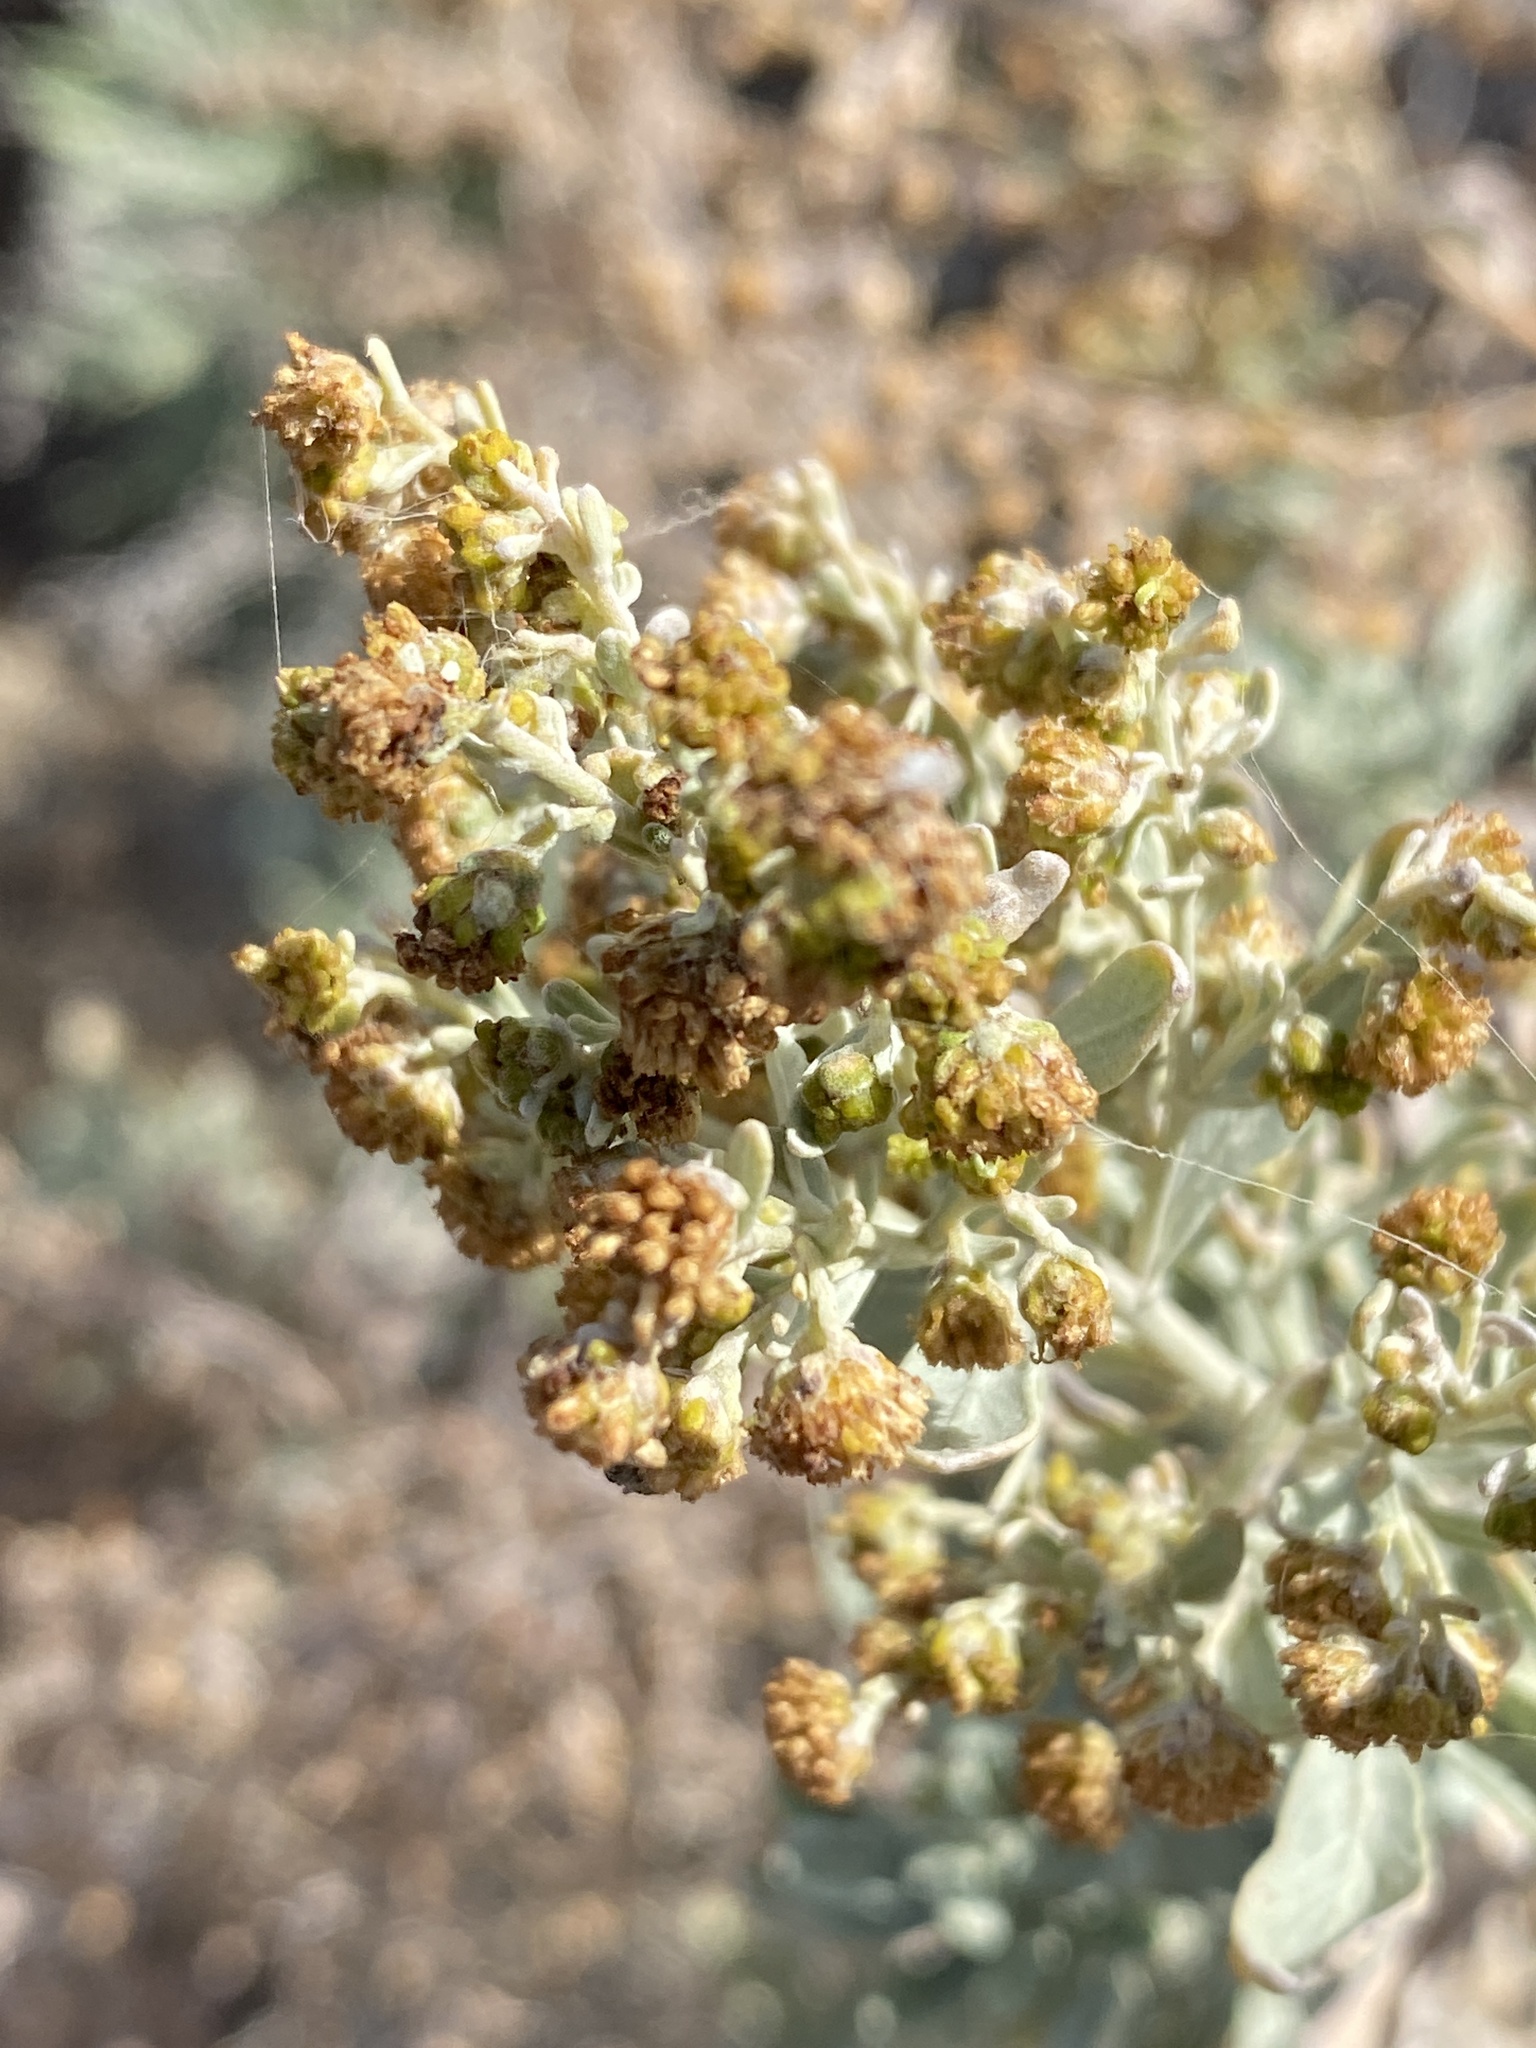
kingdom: Plantae
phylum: Tracheophyta
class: Magnoliopsida
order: Asterales
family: Asteraceae
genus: Artemisia
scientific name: Artemisia thuscula
